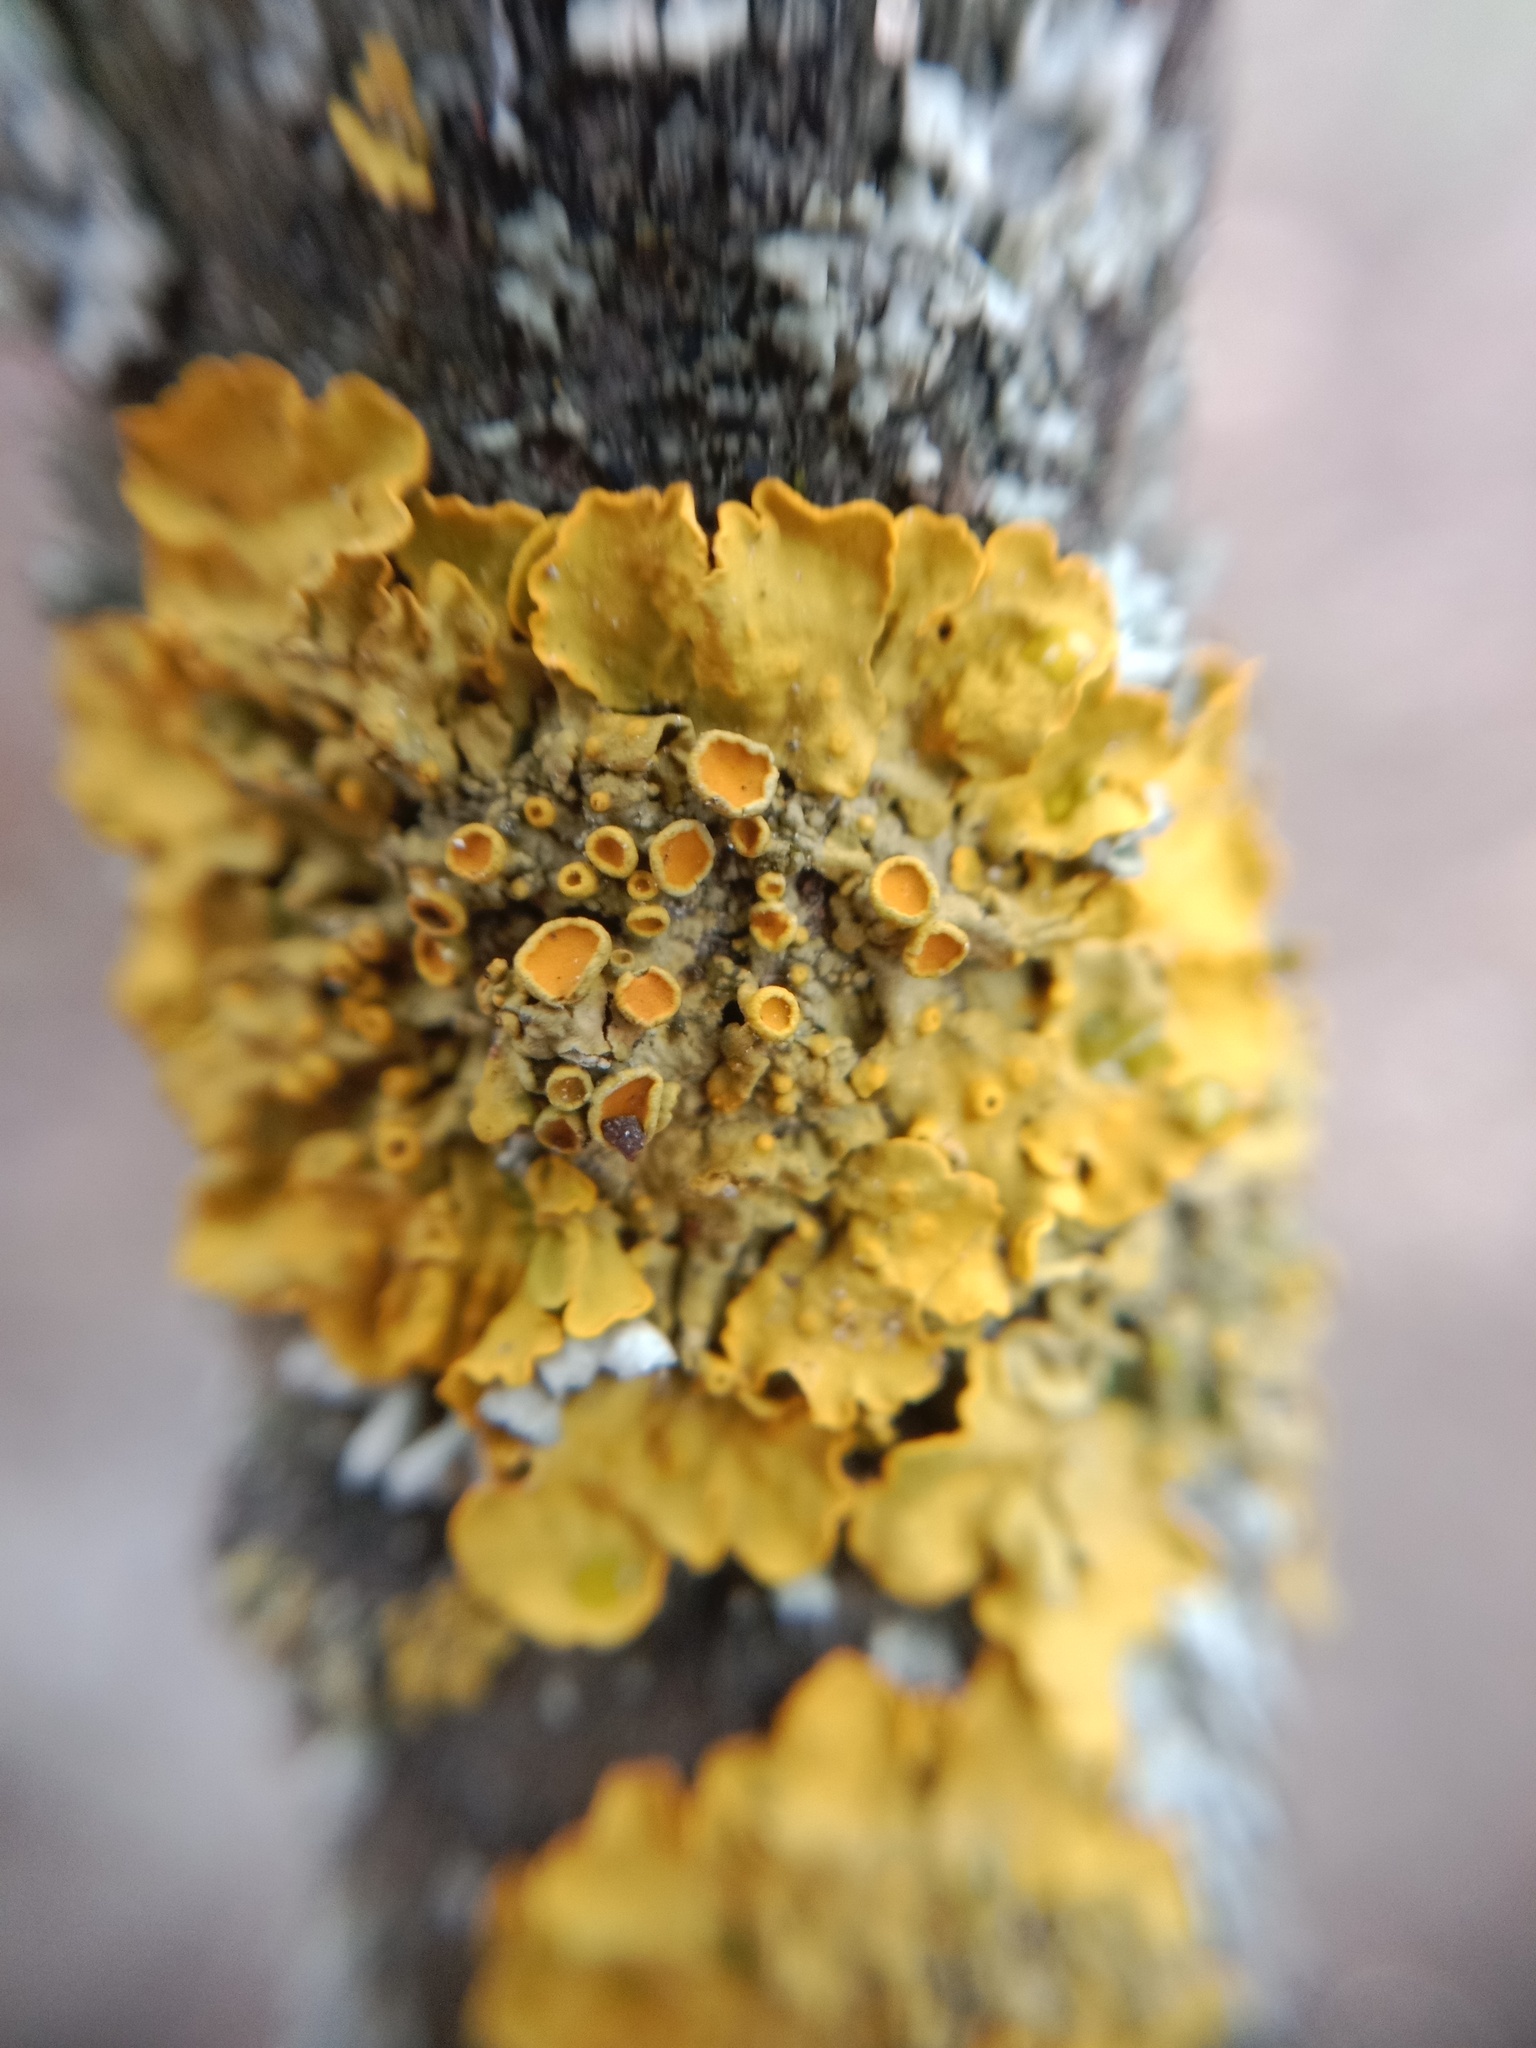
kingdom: Fungi
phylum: Ascomycota
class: Lecanoromycetes
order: Teloschistales
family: Teloschistaceae
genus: Xanthoria
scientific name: Xanthoria parietina
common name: Common orange lichen
